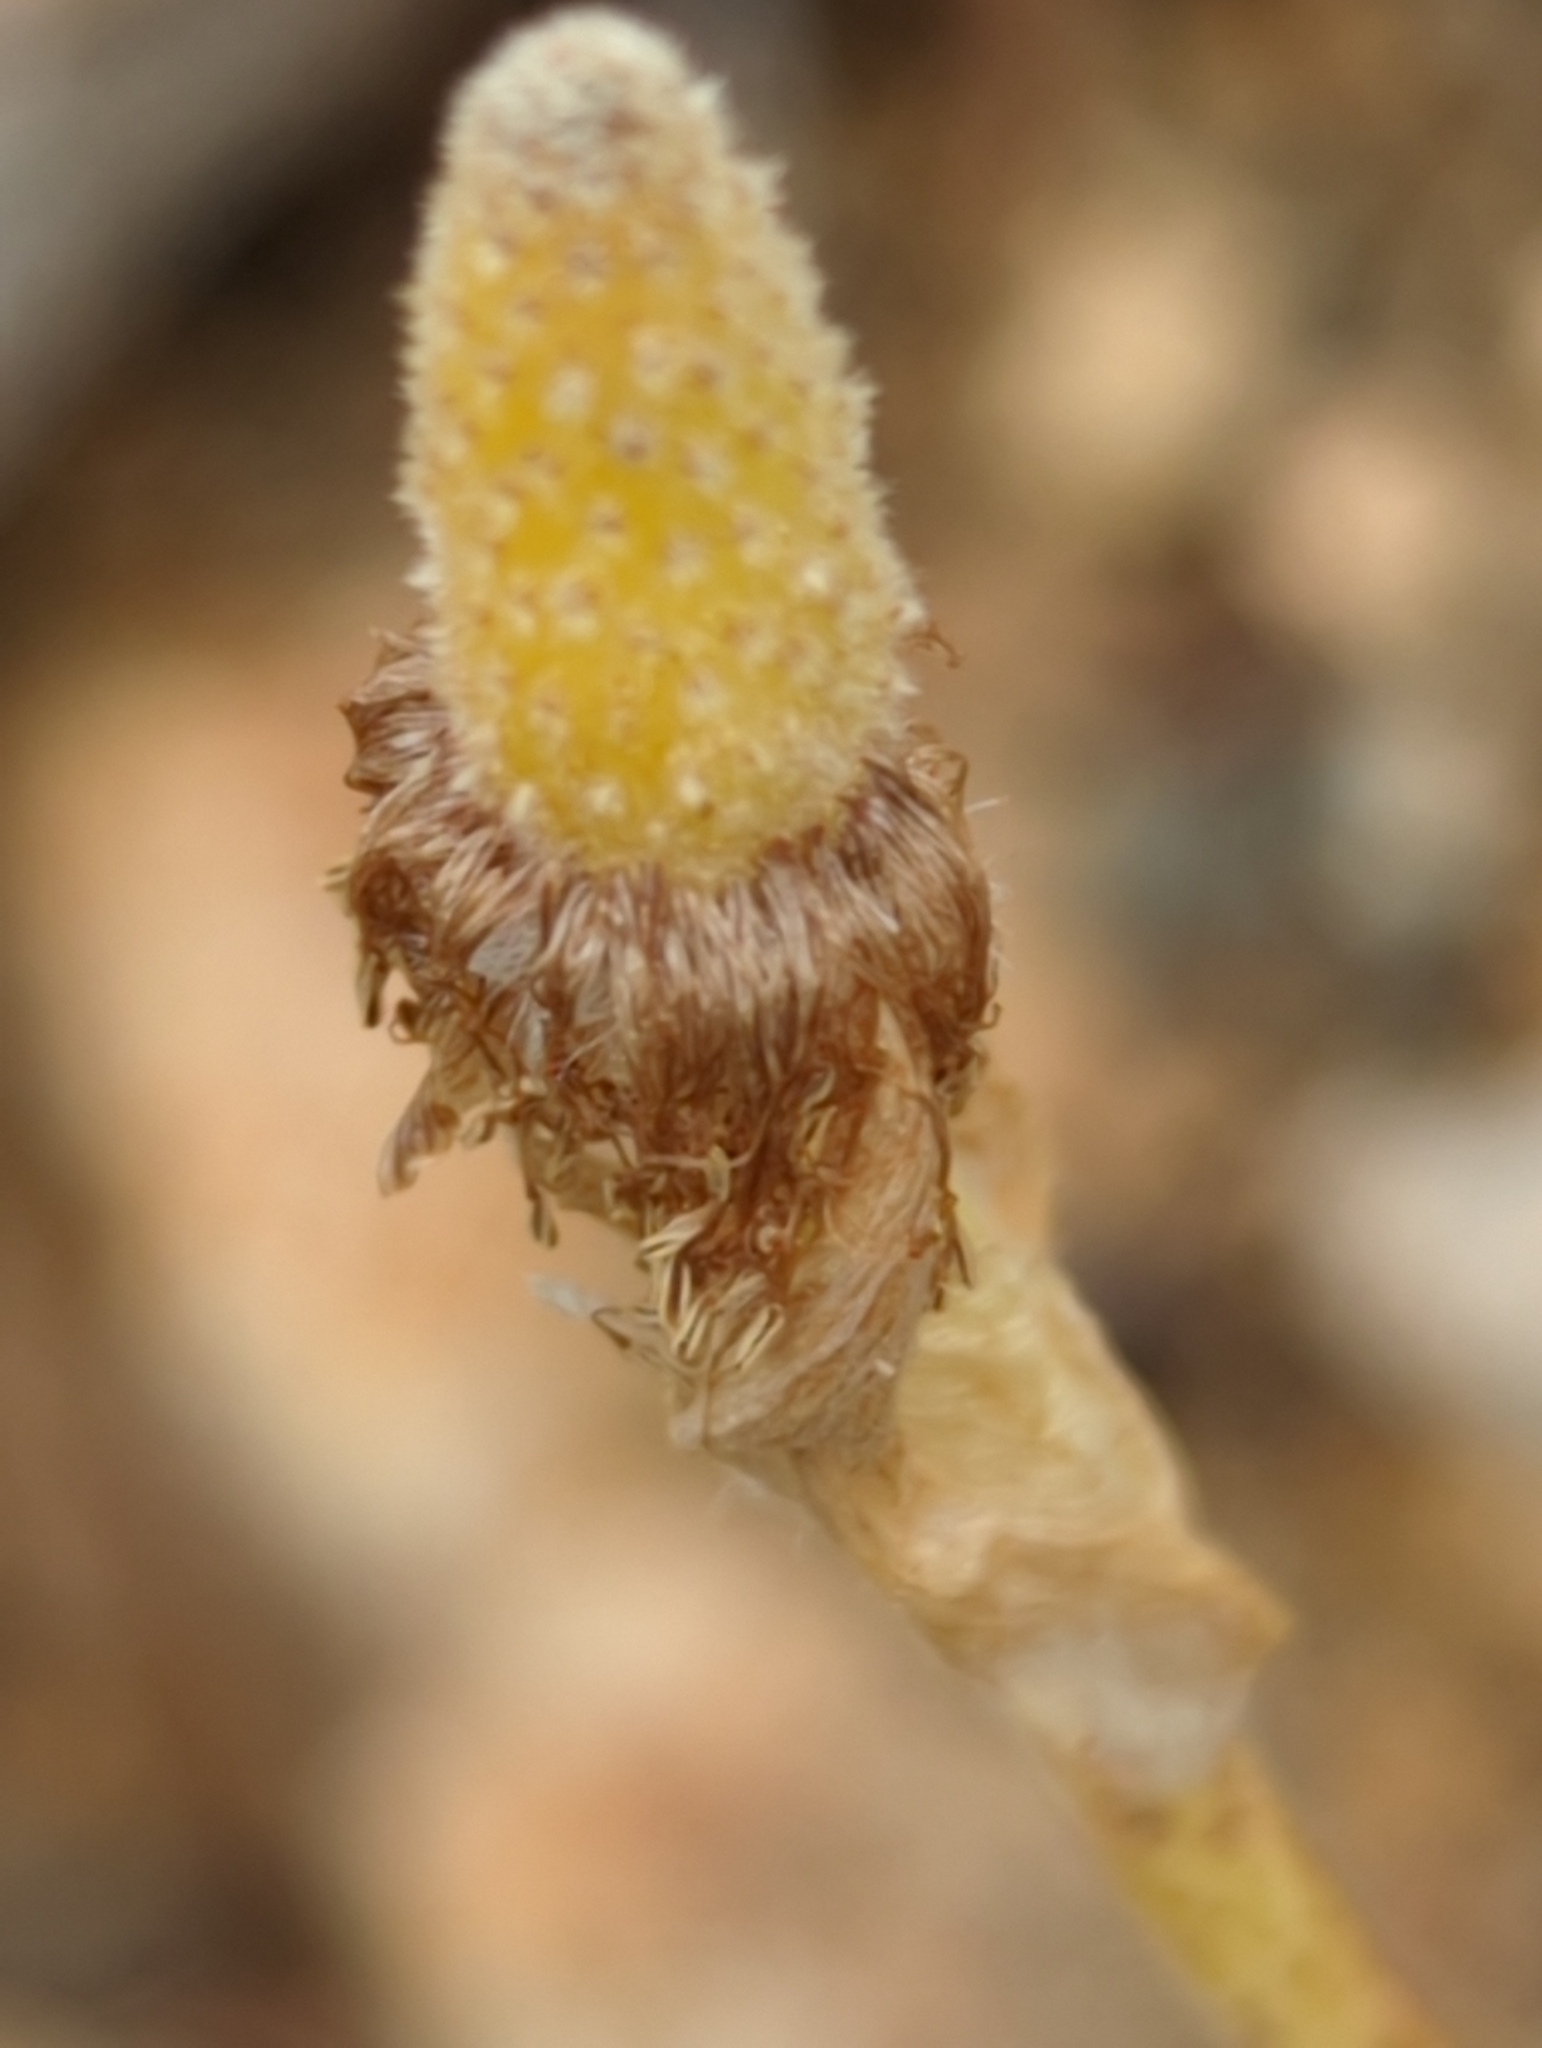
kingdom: Plantae
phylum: Tracheophyta
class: Magnoliopsida
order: Ranunculales
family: Ranunculaceae
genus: Pulsatilla
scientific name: Pulsatilla occidentalis
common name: Mountain pasqueflower
